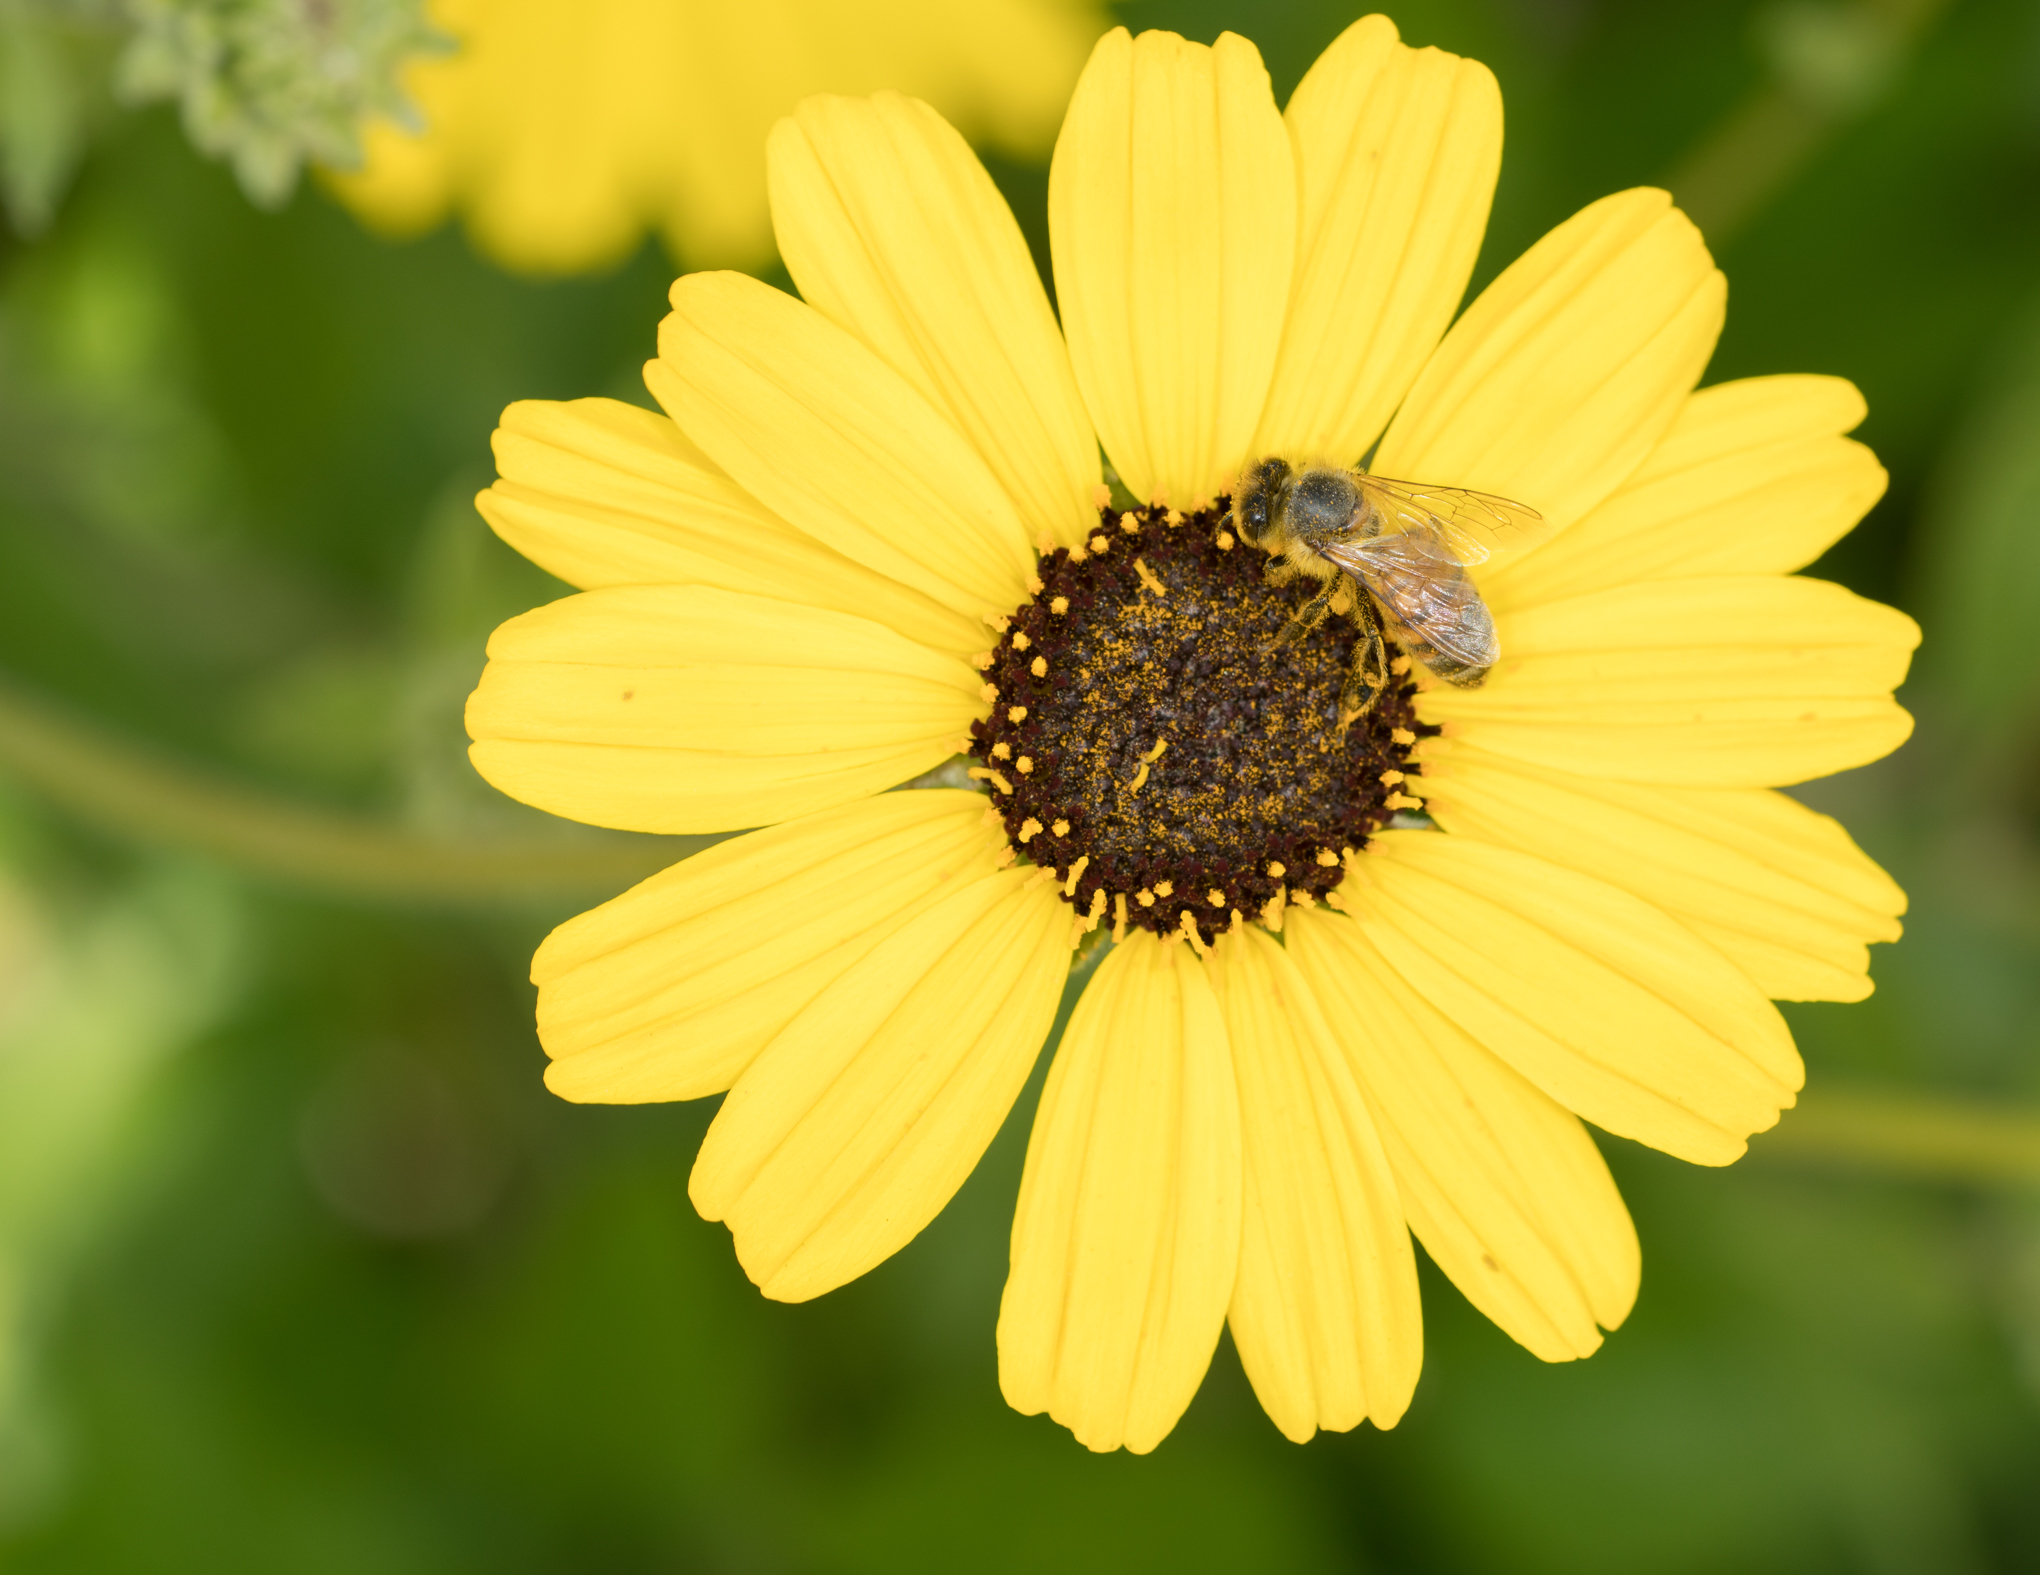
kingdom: Animalia
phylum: Arthropoda
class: Insecta
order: Hymenoptera
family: Apidae
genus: Apis
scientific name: Apis mellifera
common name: Honey bee
